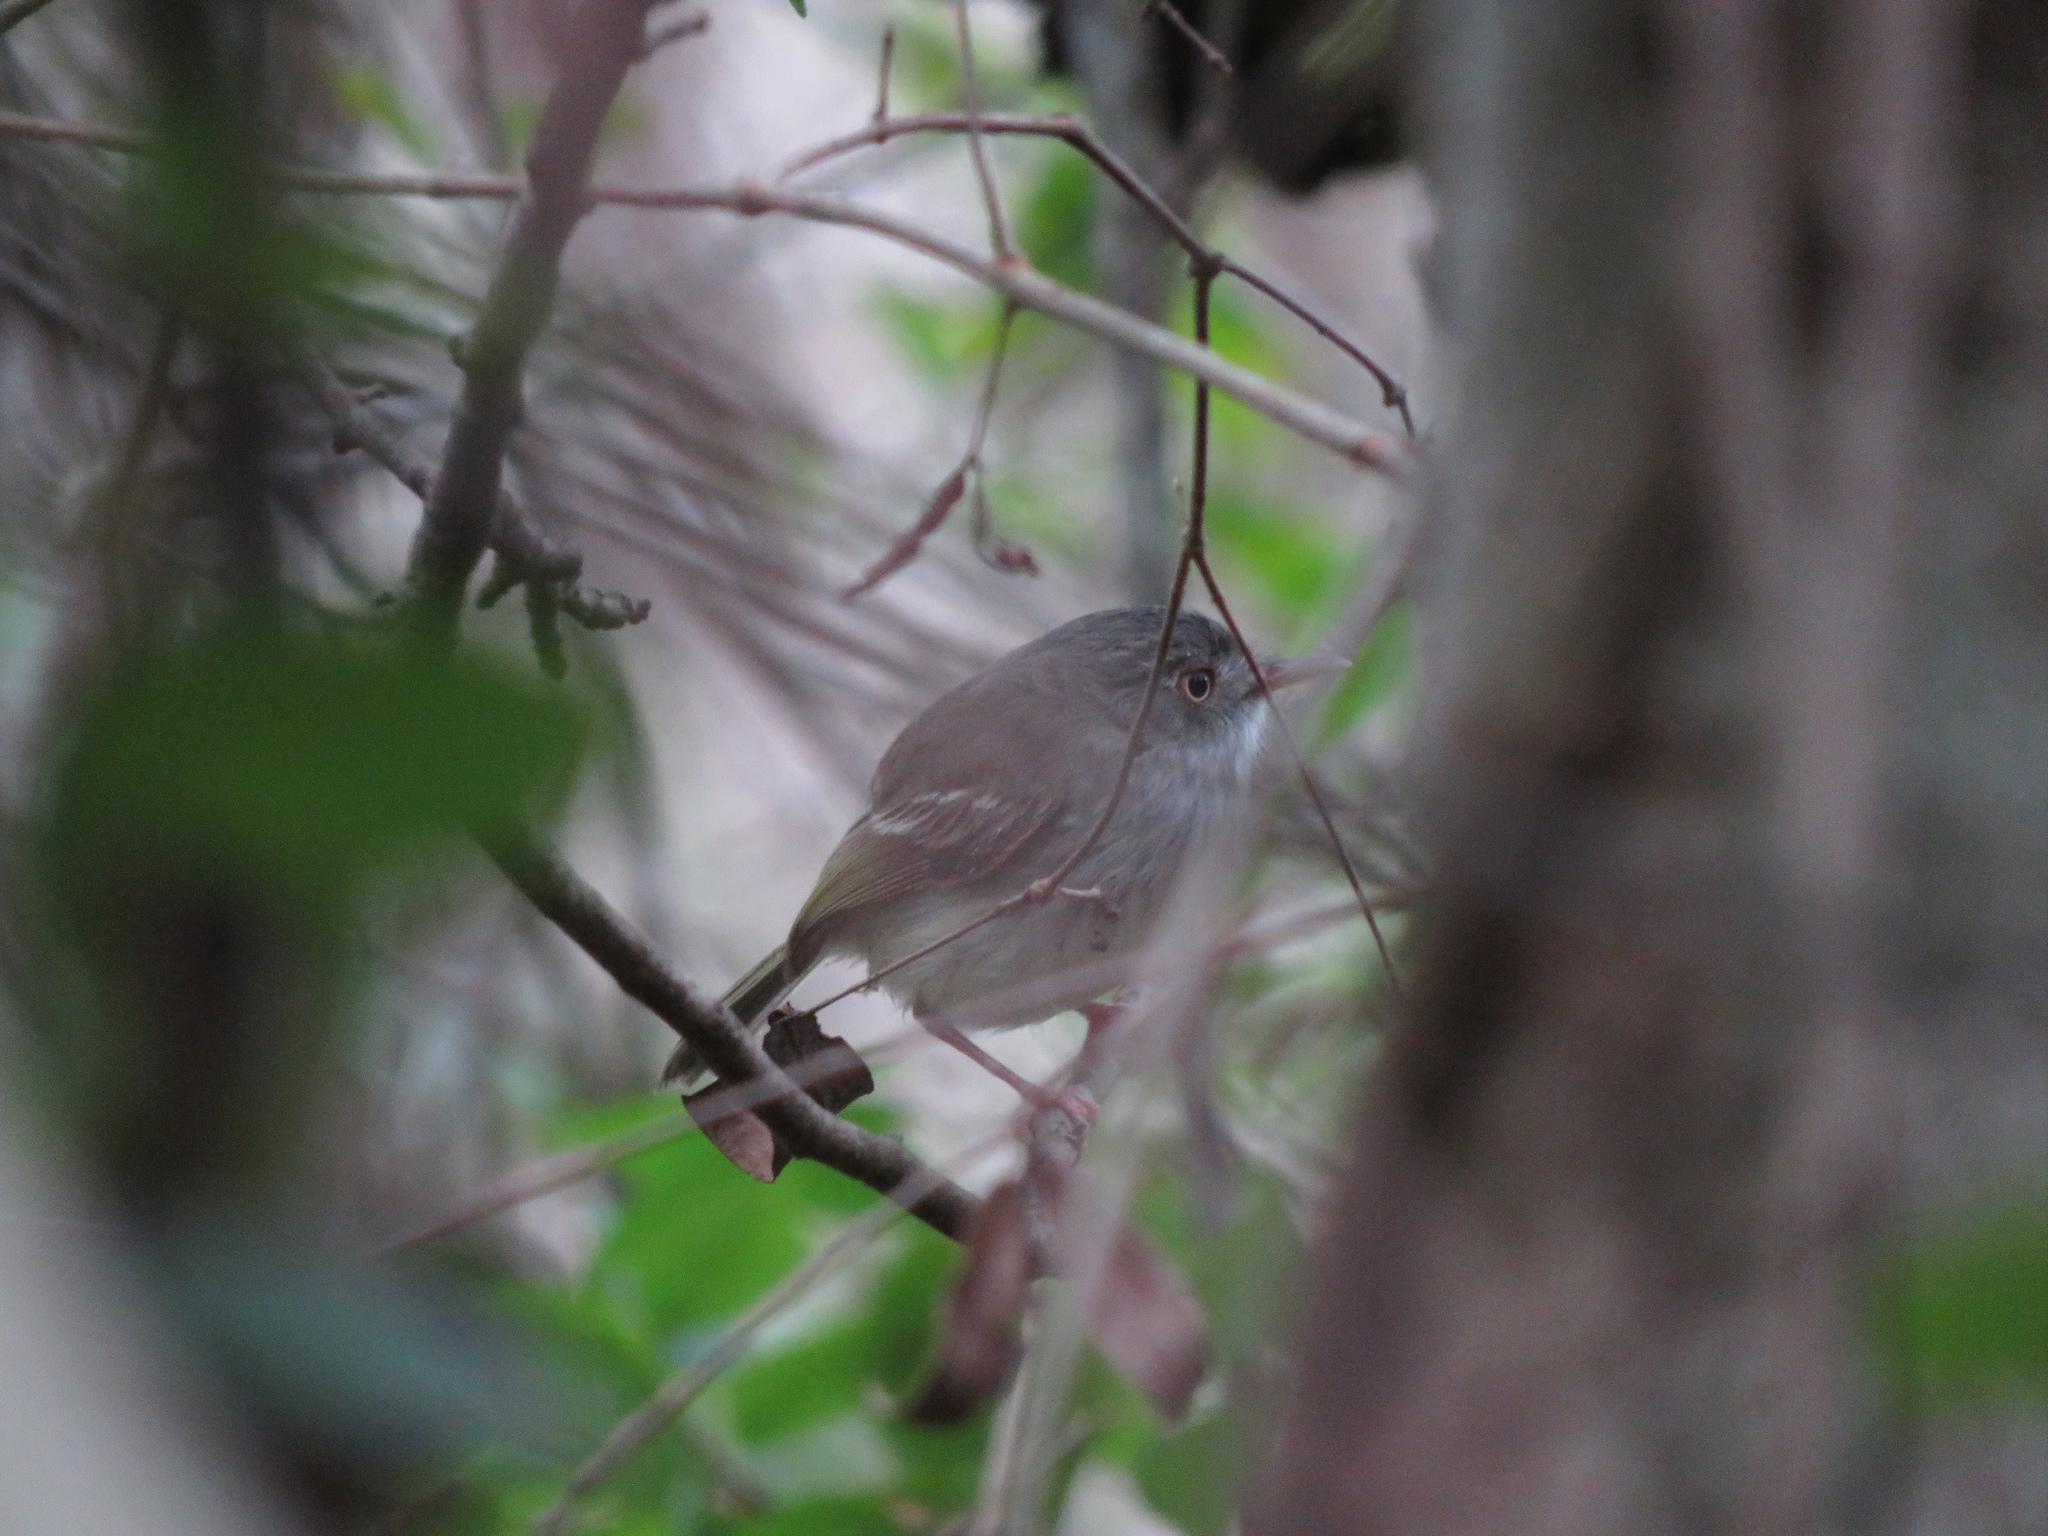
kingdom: Animalia
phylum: Chordata
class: Aves
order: Passeriformes
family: Tyrannidae
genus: Hemitriccus
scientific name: Hemitriccus margaritaceiventer
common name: Pearly-vented tody-tyrant
